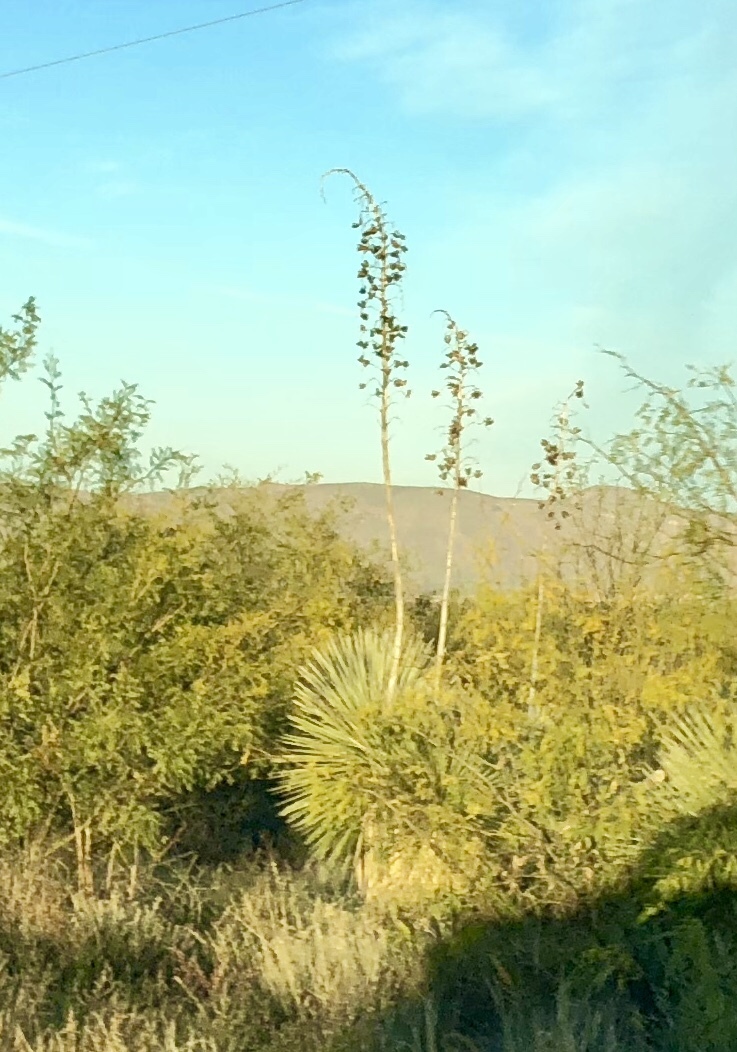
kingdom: Plantae
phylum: Tracheophyta
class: Liliopsida
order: Asparagales
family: Asparagaceae
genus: Yucca
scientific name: Yucca elata
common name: Palmella
